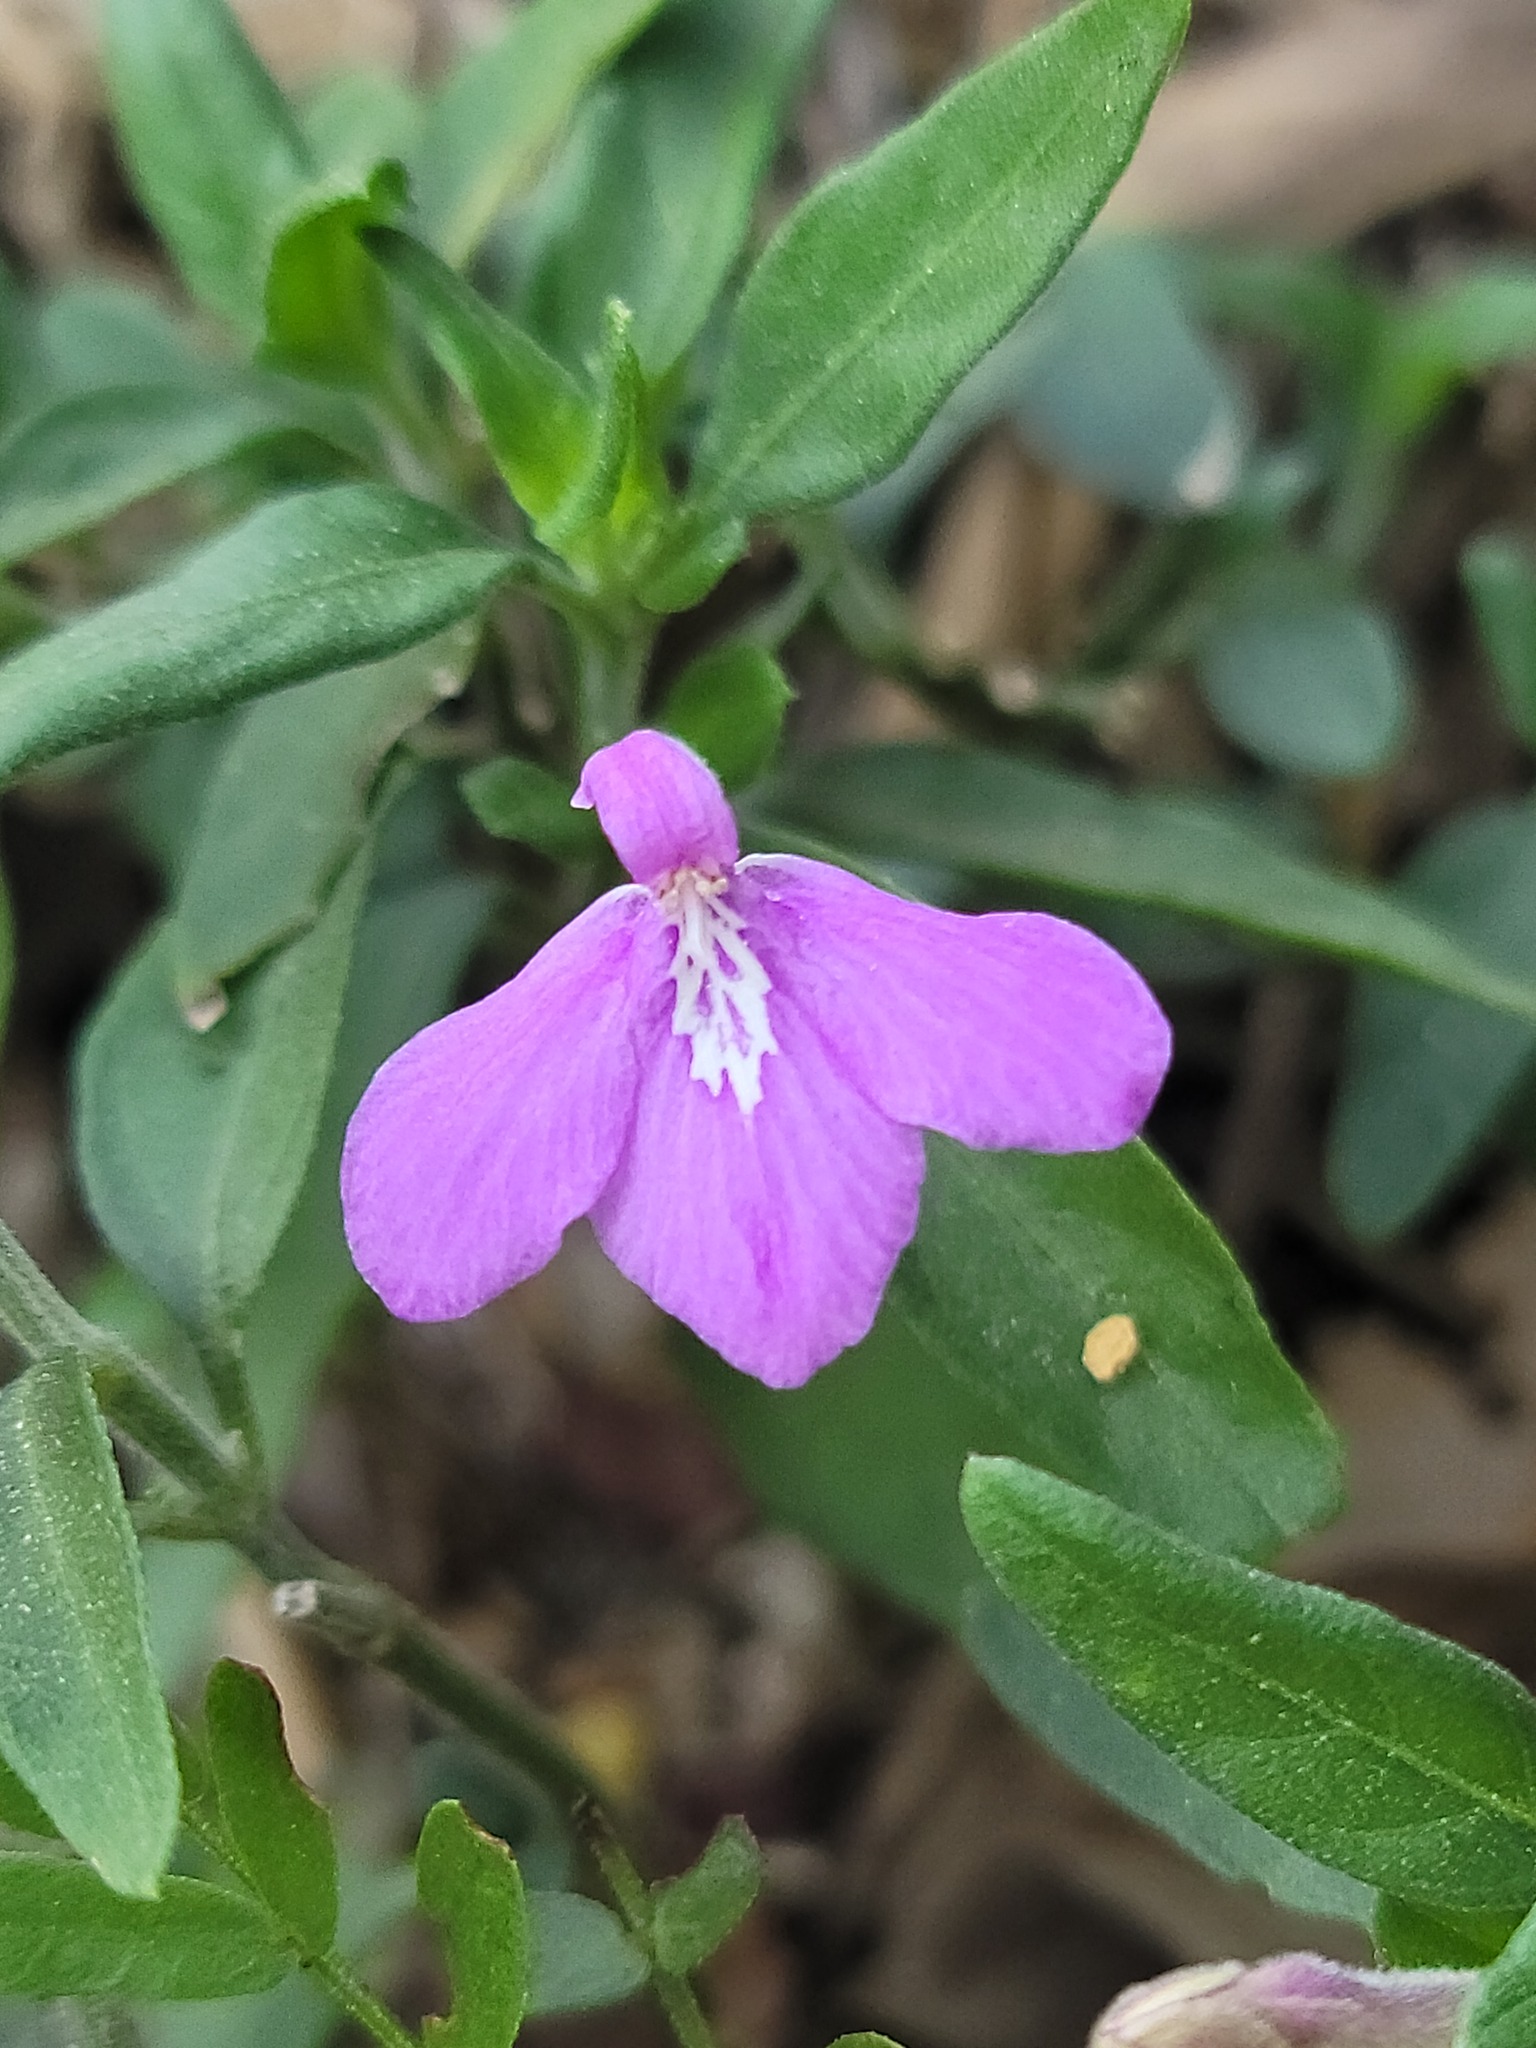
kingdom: Plantae
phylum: Tracheophyta
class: Magnoliopsida
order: Lamiales
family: Acanthaceae
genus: Justicia
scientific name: Justicia pilosella
